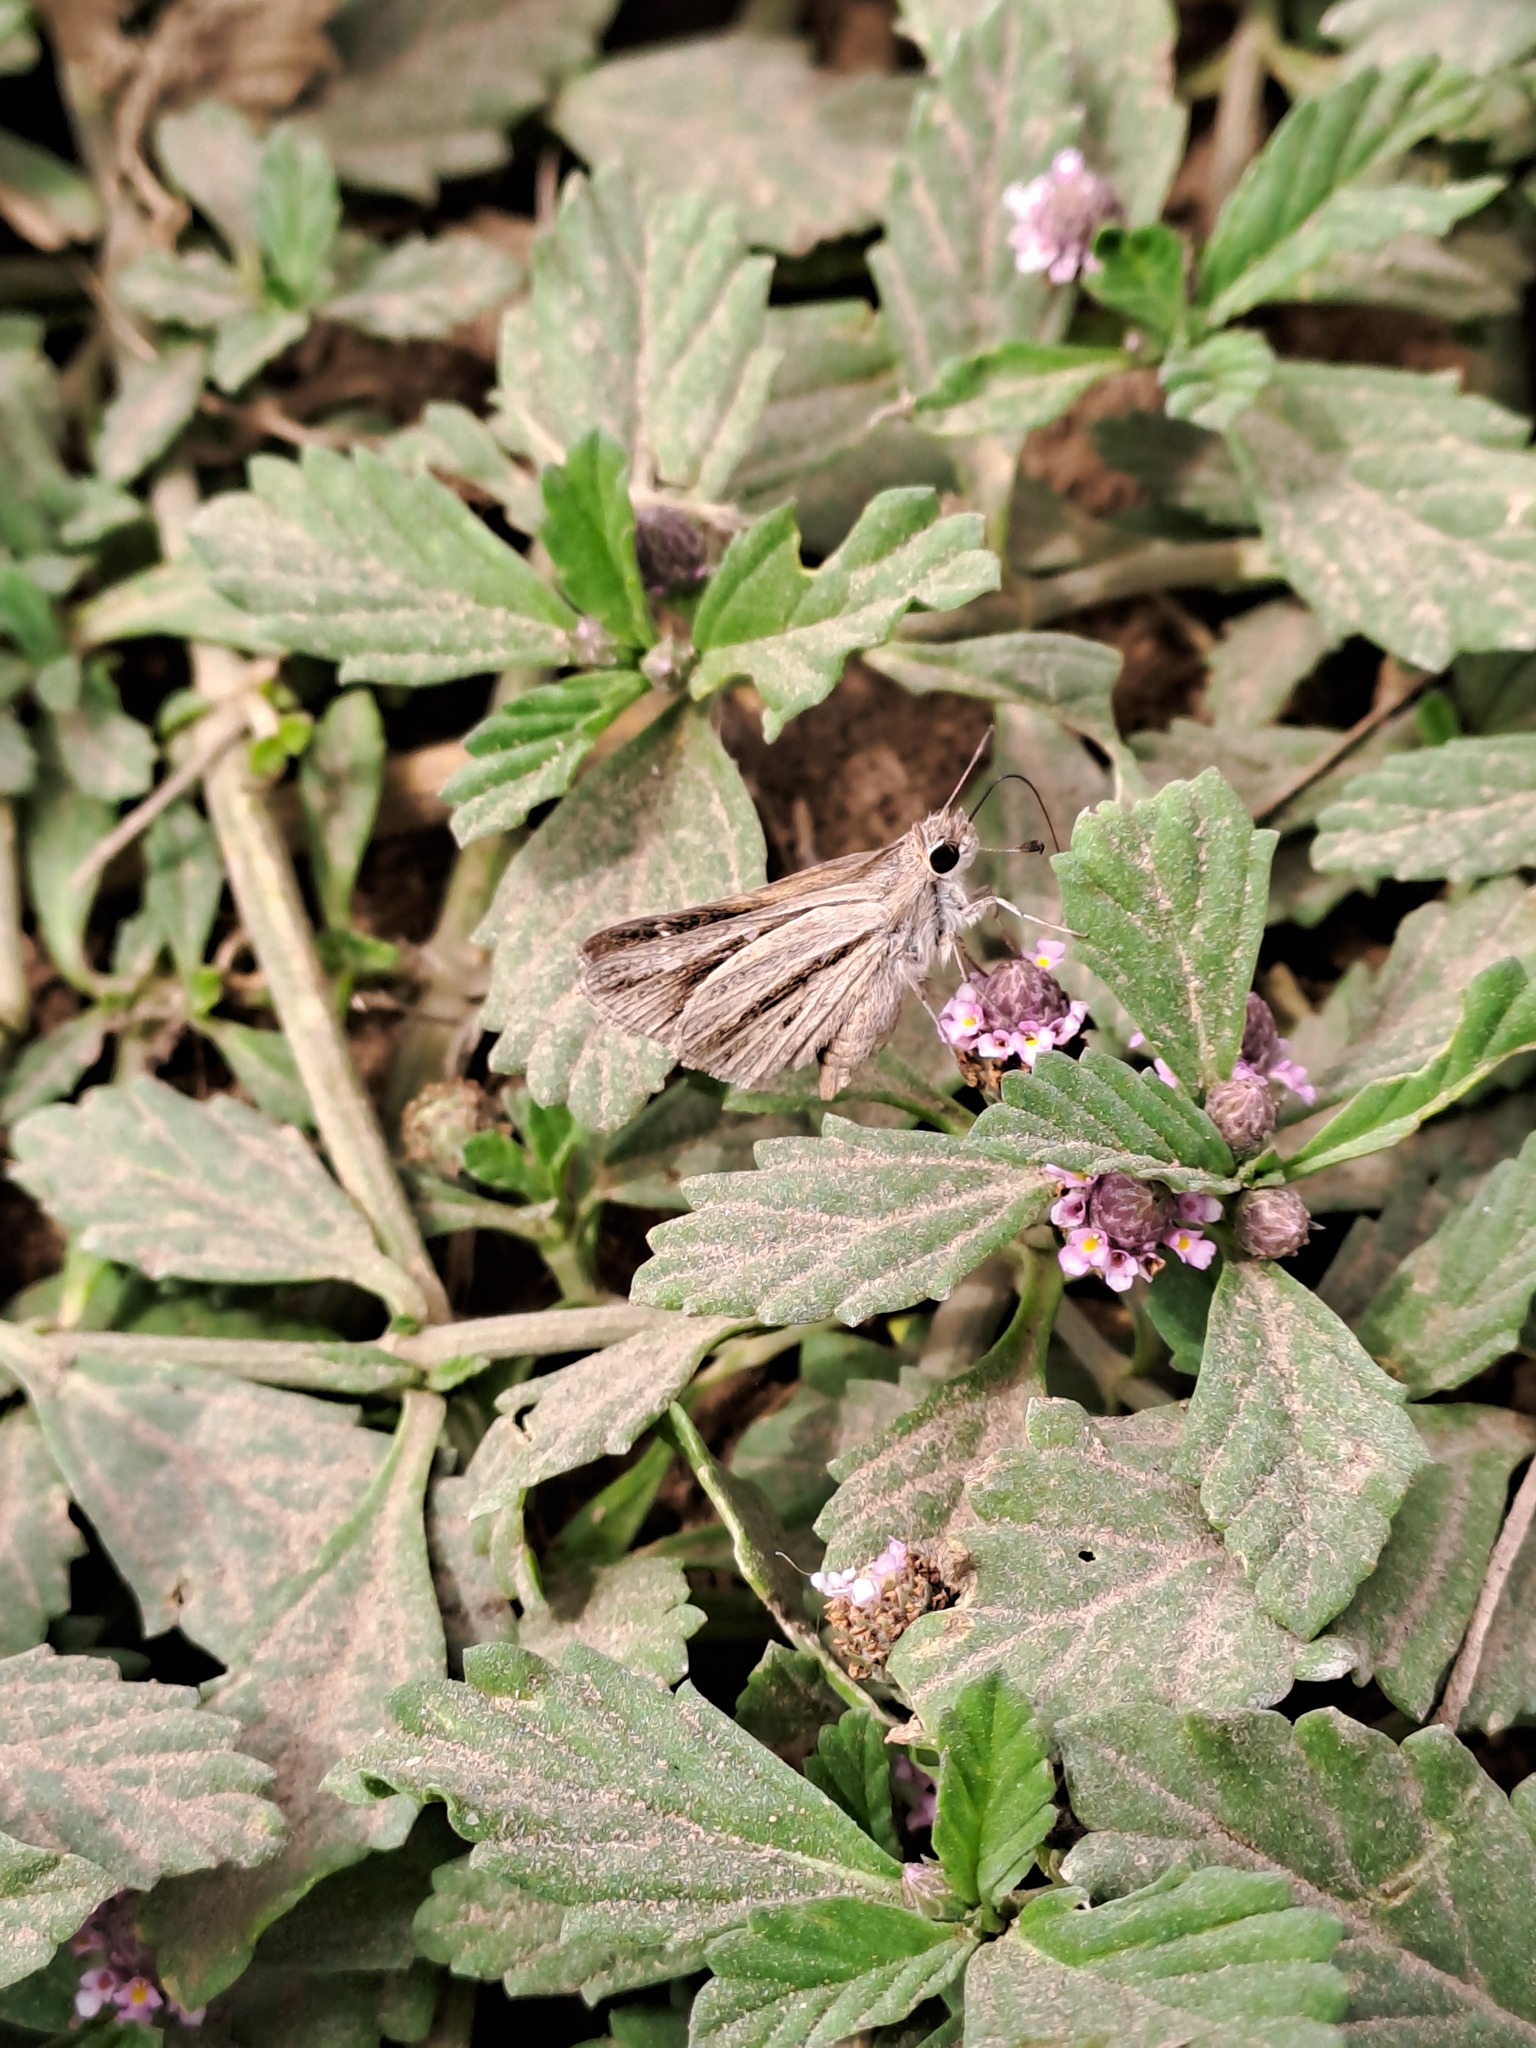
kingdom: Animalia
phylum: Arthropoda
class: Insecta
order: Lepidoptera
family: Hesperiidae
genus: Lerodea
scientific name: Lerodea gracia
